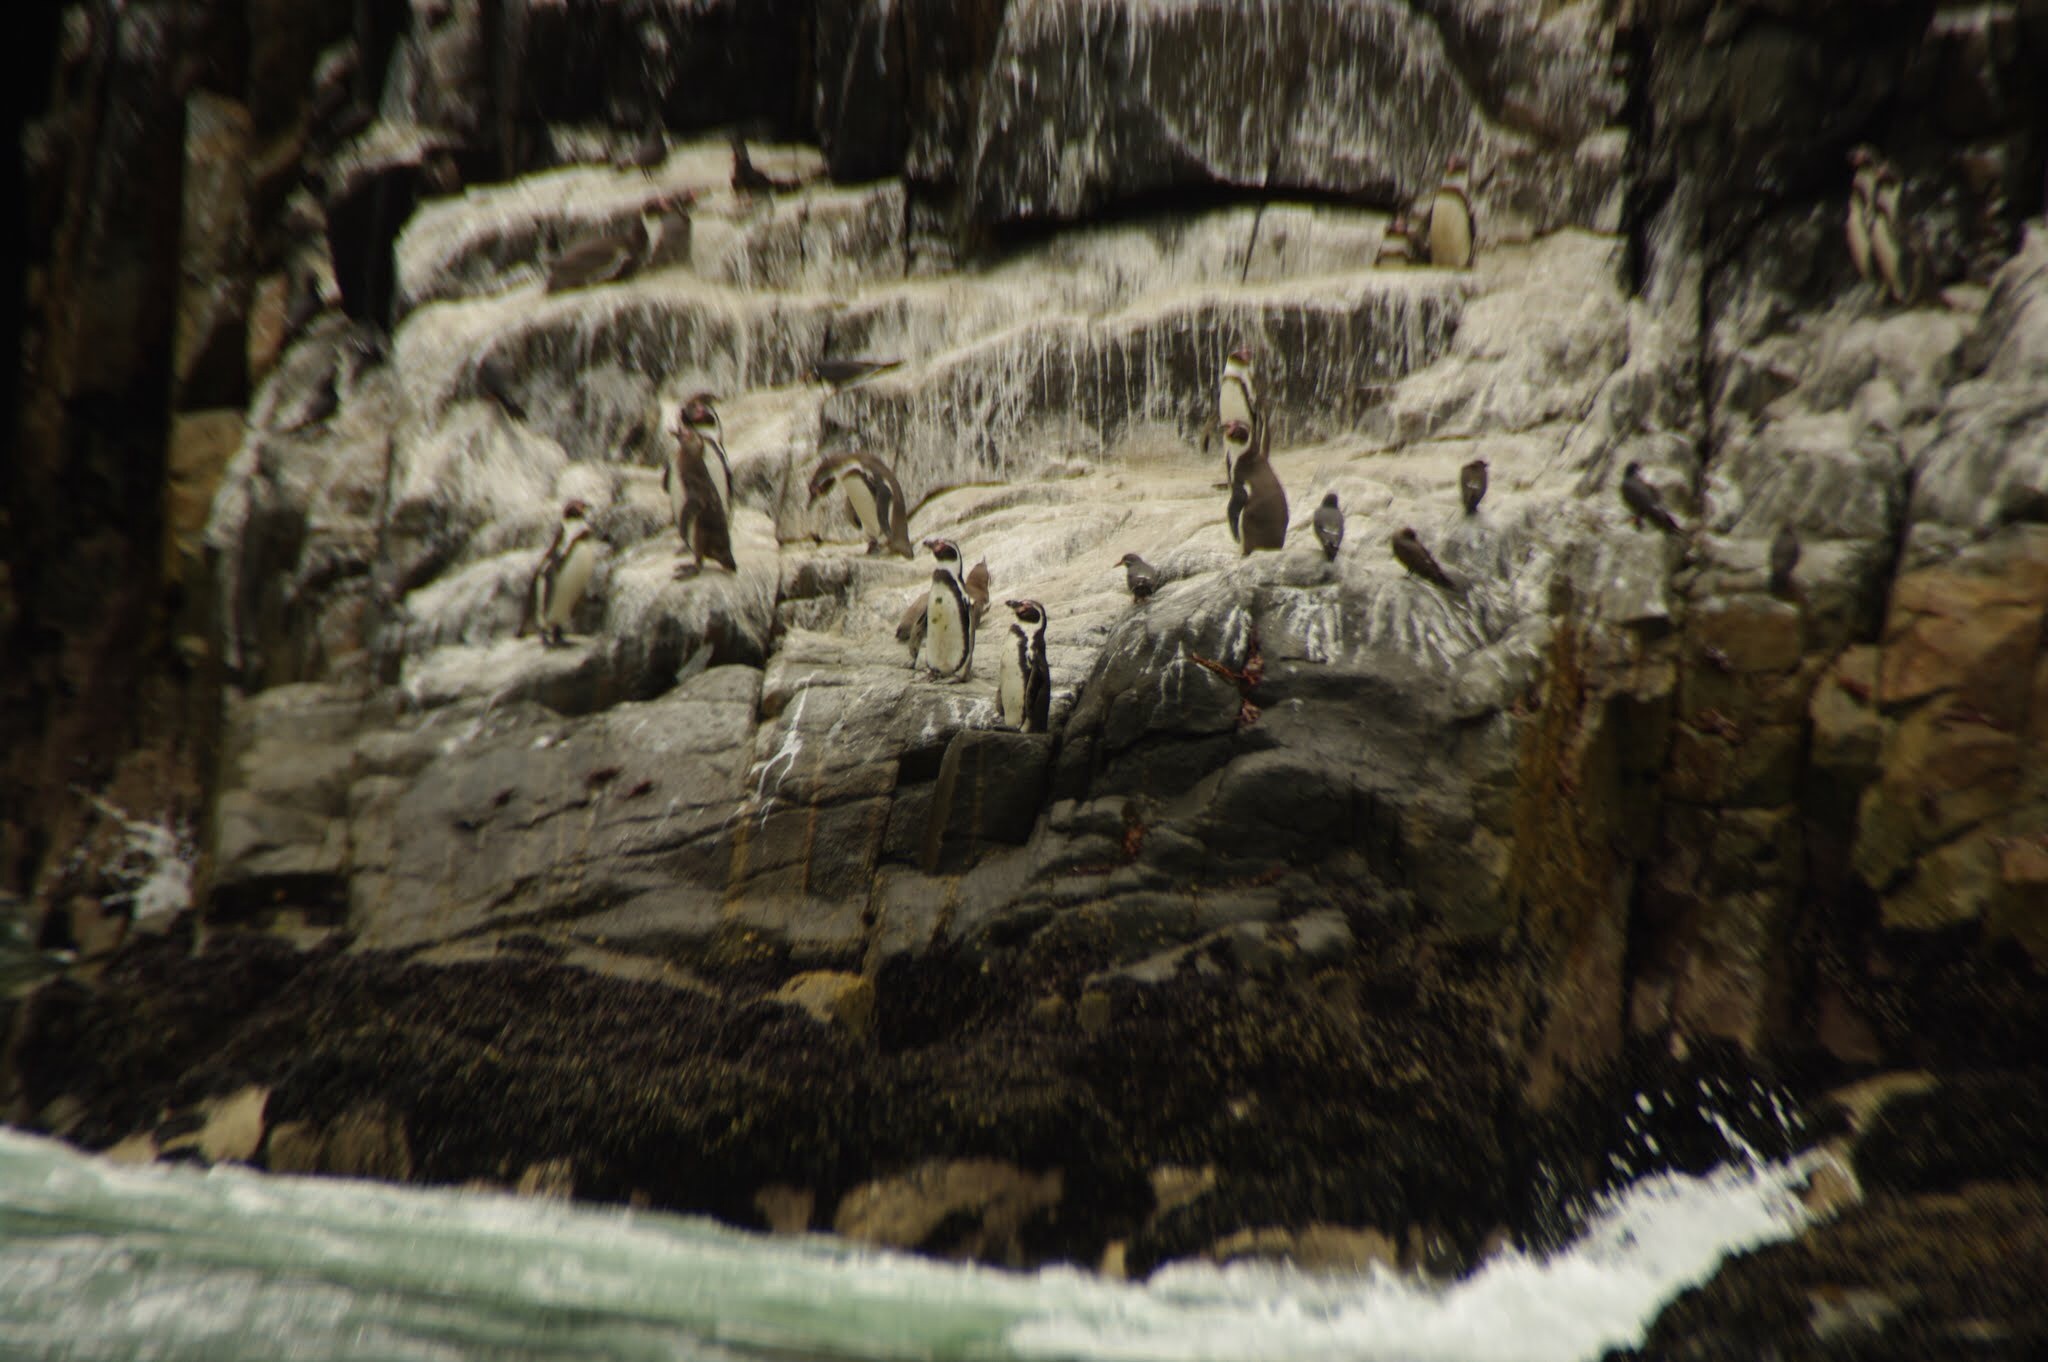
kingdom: Animalia
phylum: Chordata
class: Aves
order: Sphenisciformes
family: Spheniscidae
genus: Spheniscus
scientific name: Spheniscus humboldti
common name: Humboldt penguin
